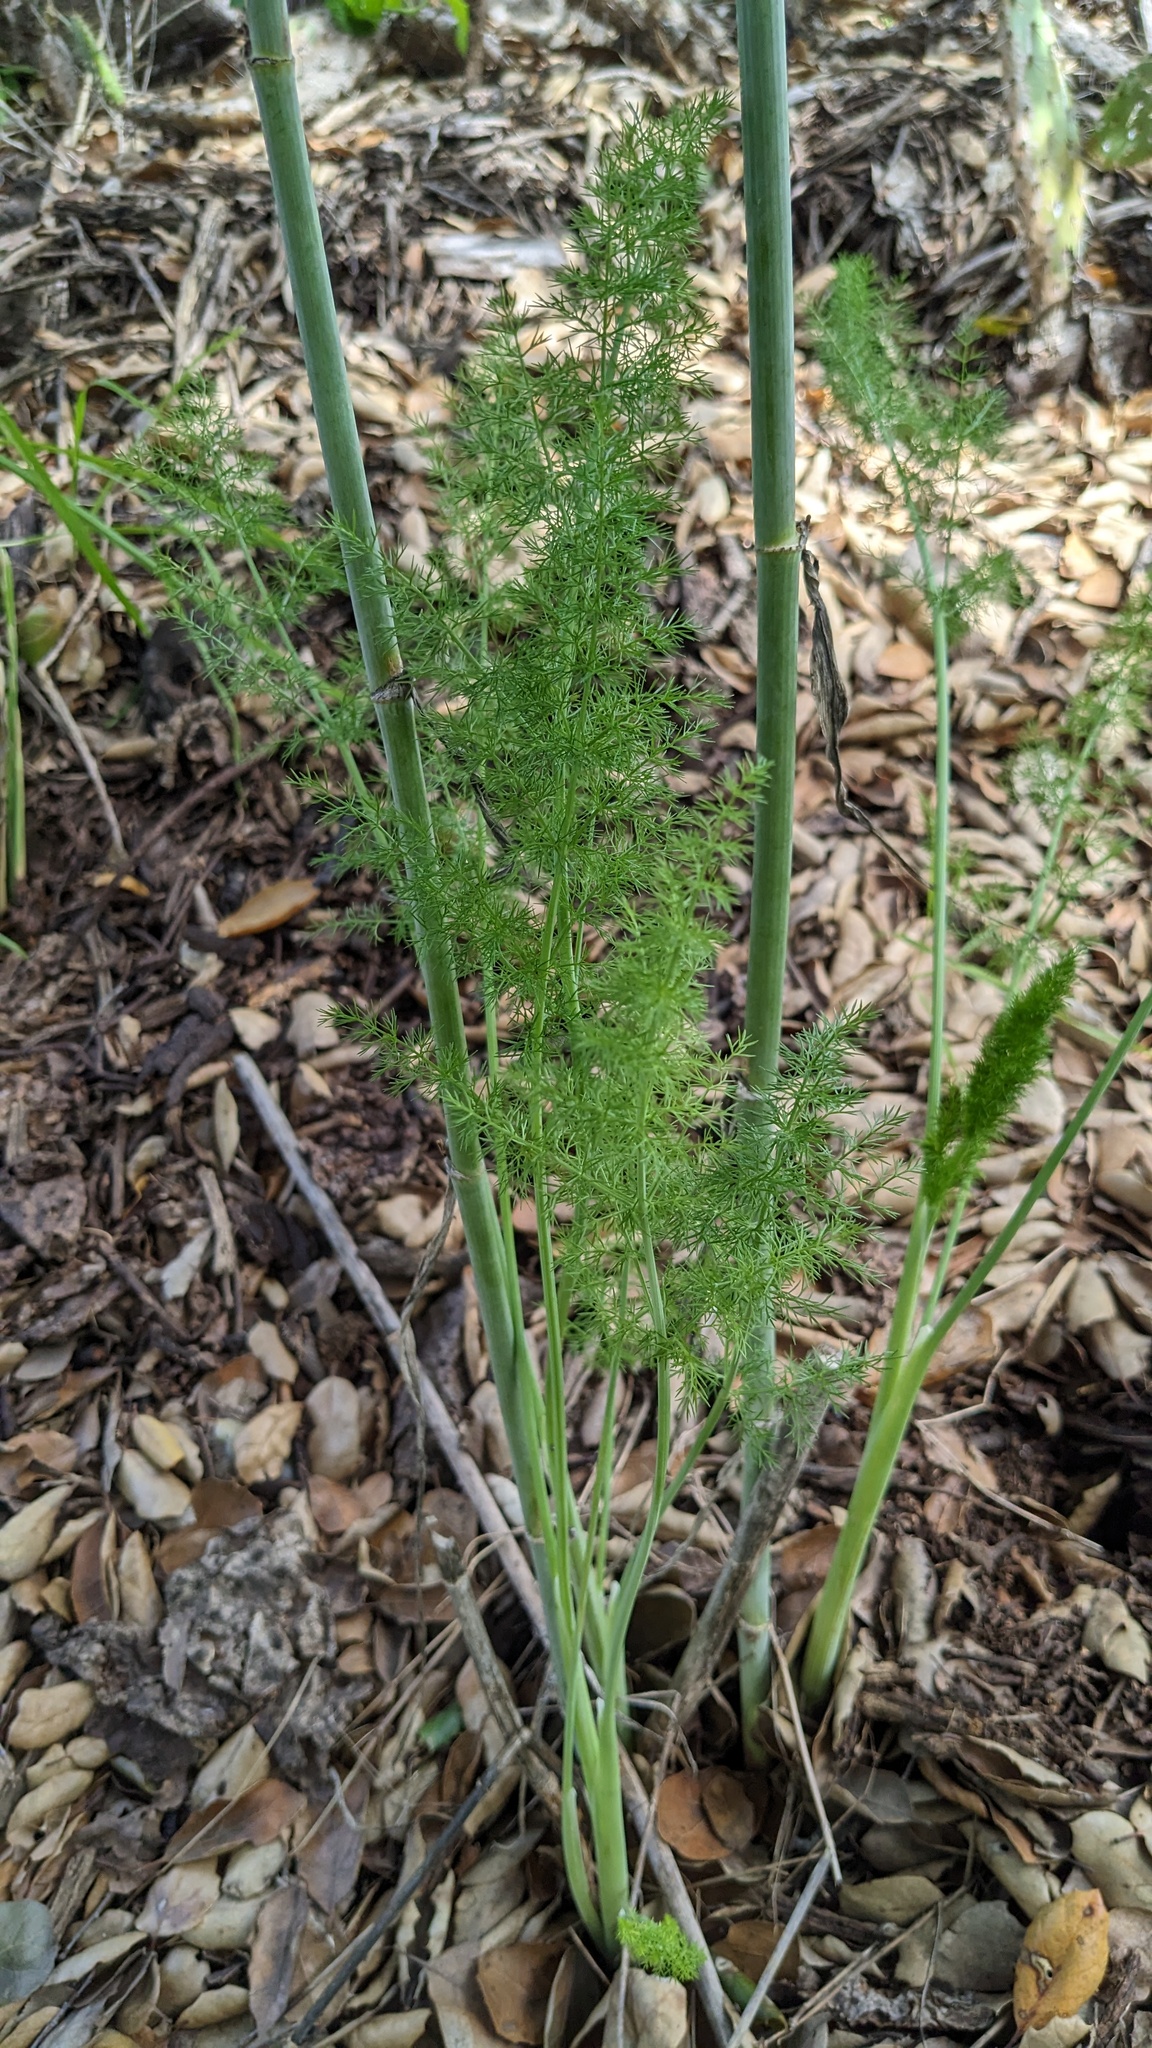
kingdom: Plantae
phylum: Tracheophyta
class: Magnoliopsida
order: Apiales
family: Apiaceae
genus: Foeniculum
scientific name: Foeniculum vulgare
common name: Fennel
